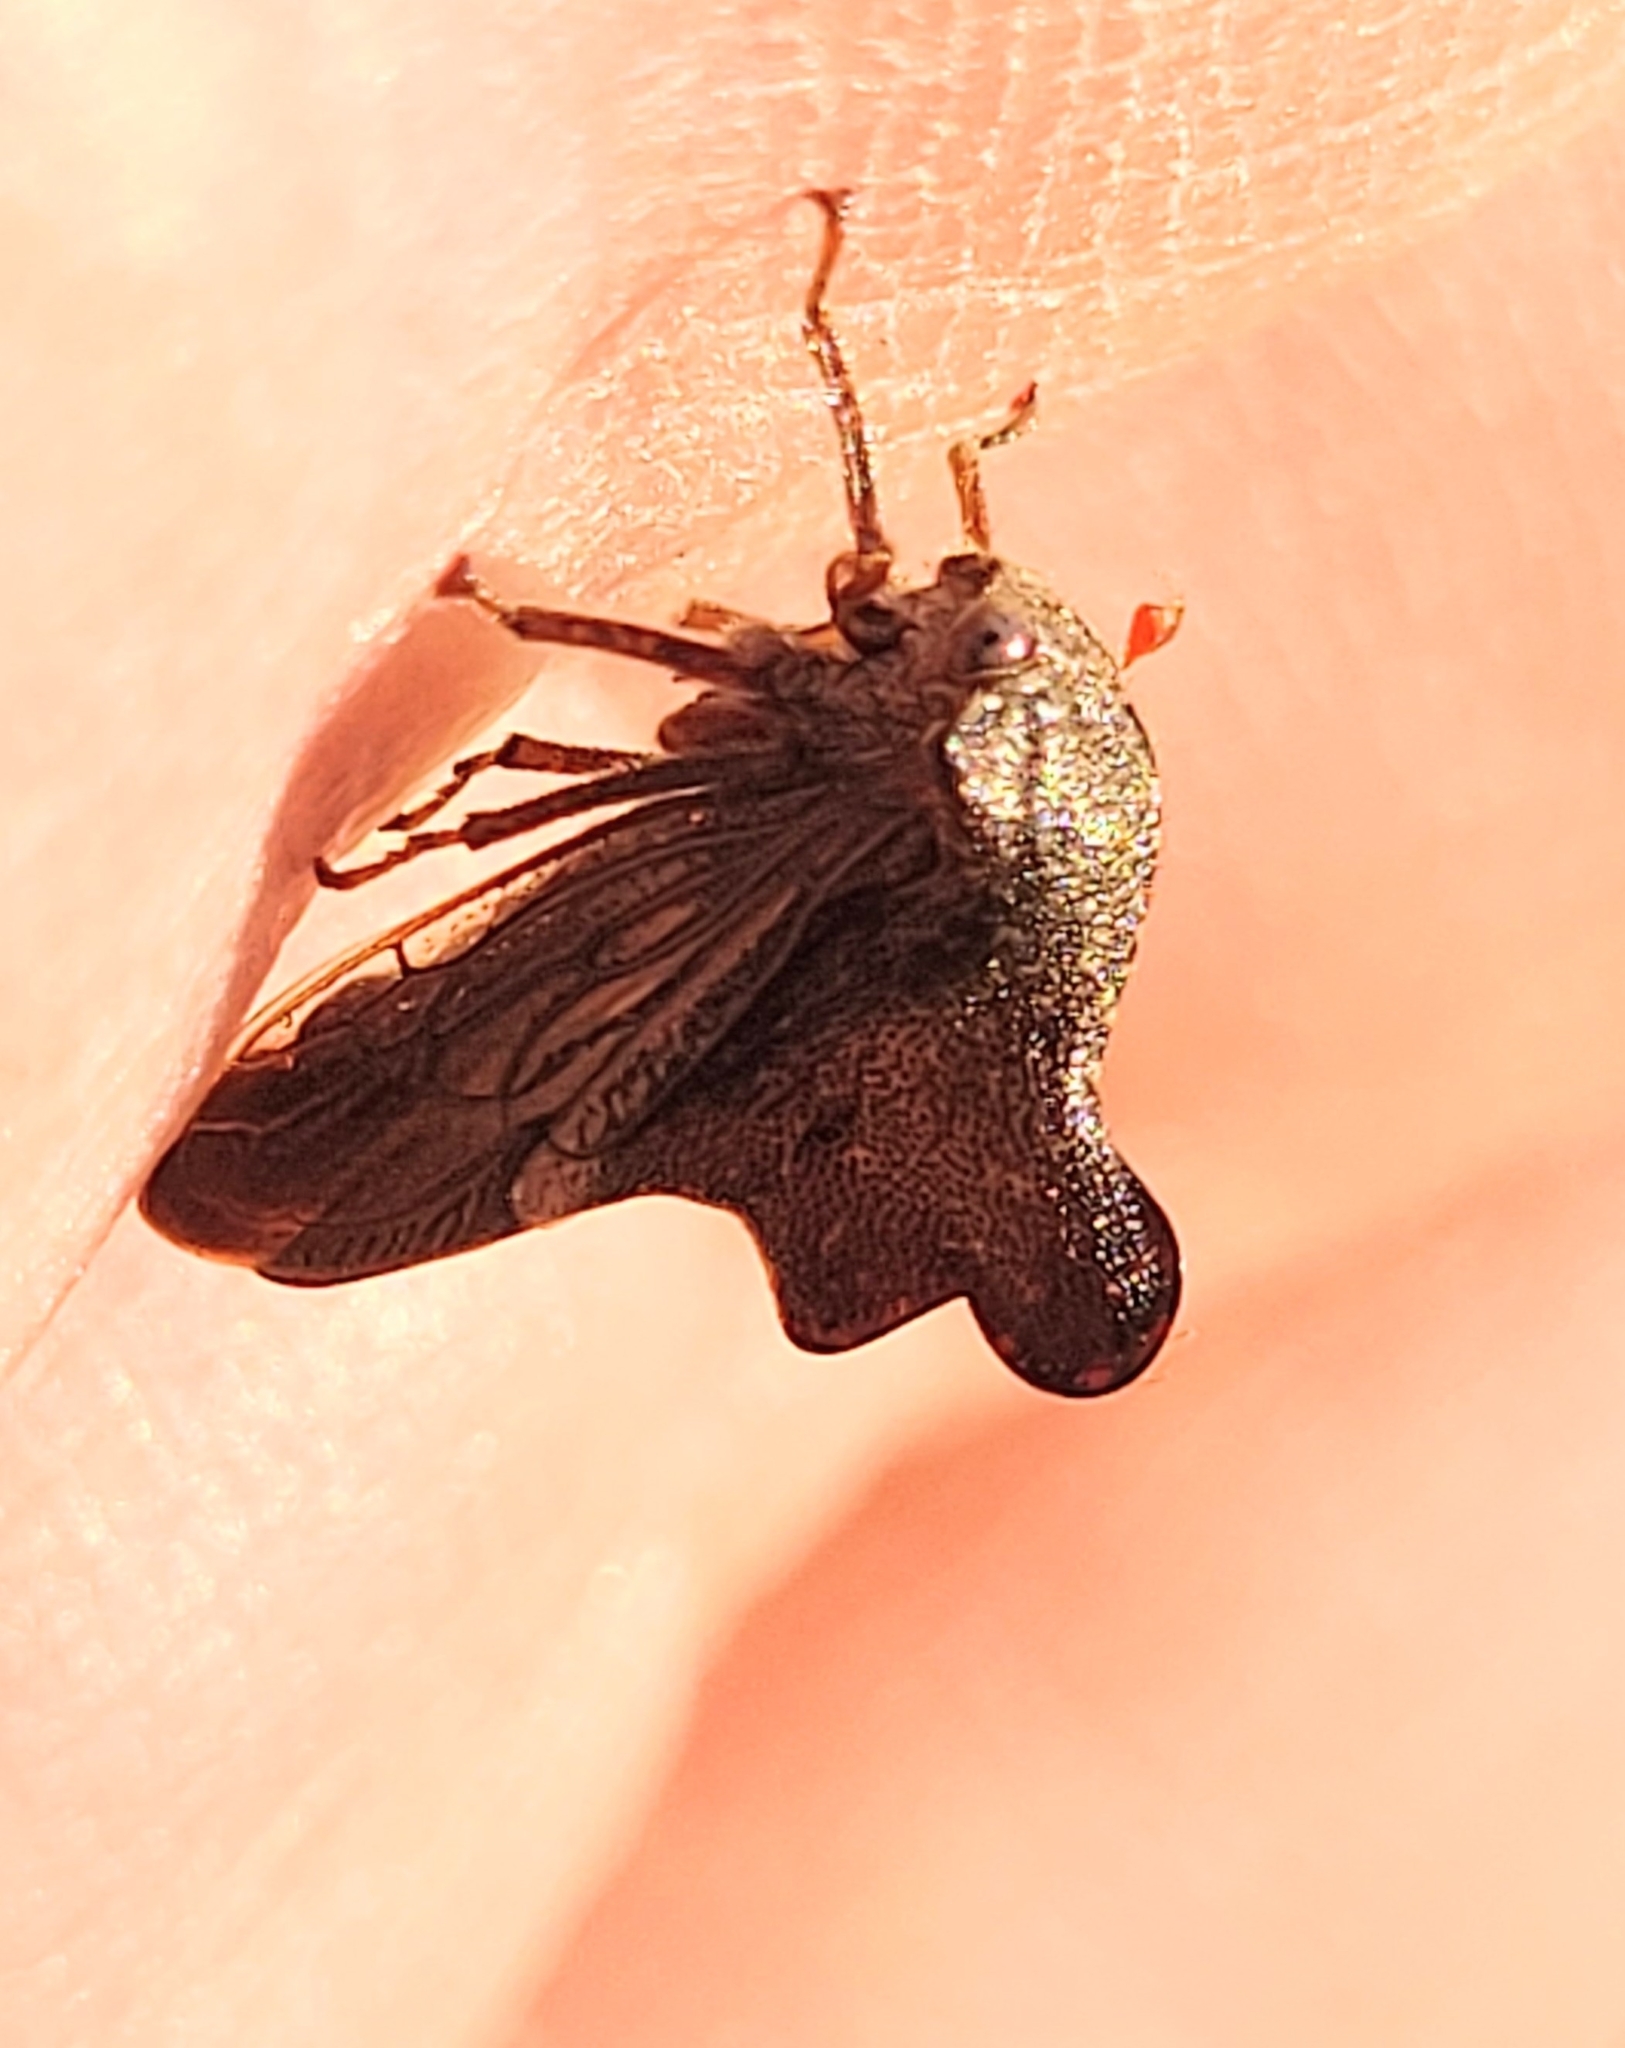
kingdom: Animalia
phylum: Arthropoda
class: Insecta
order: Hemiptera
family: Membracidae
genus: Heliria
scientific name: Heliria praealta
